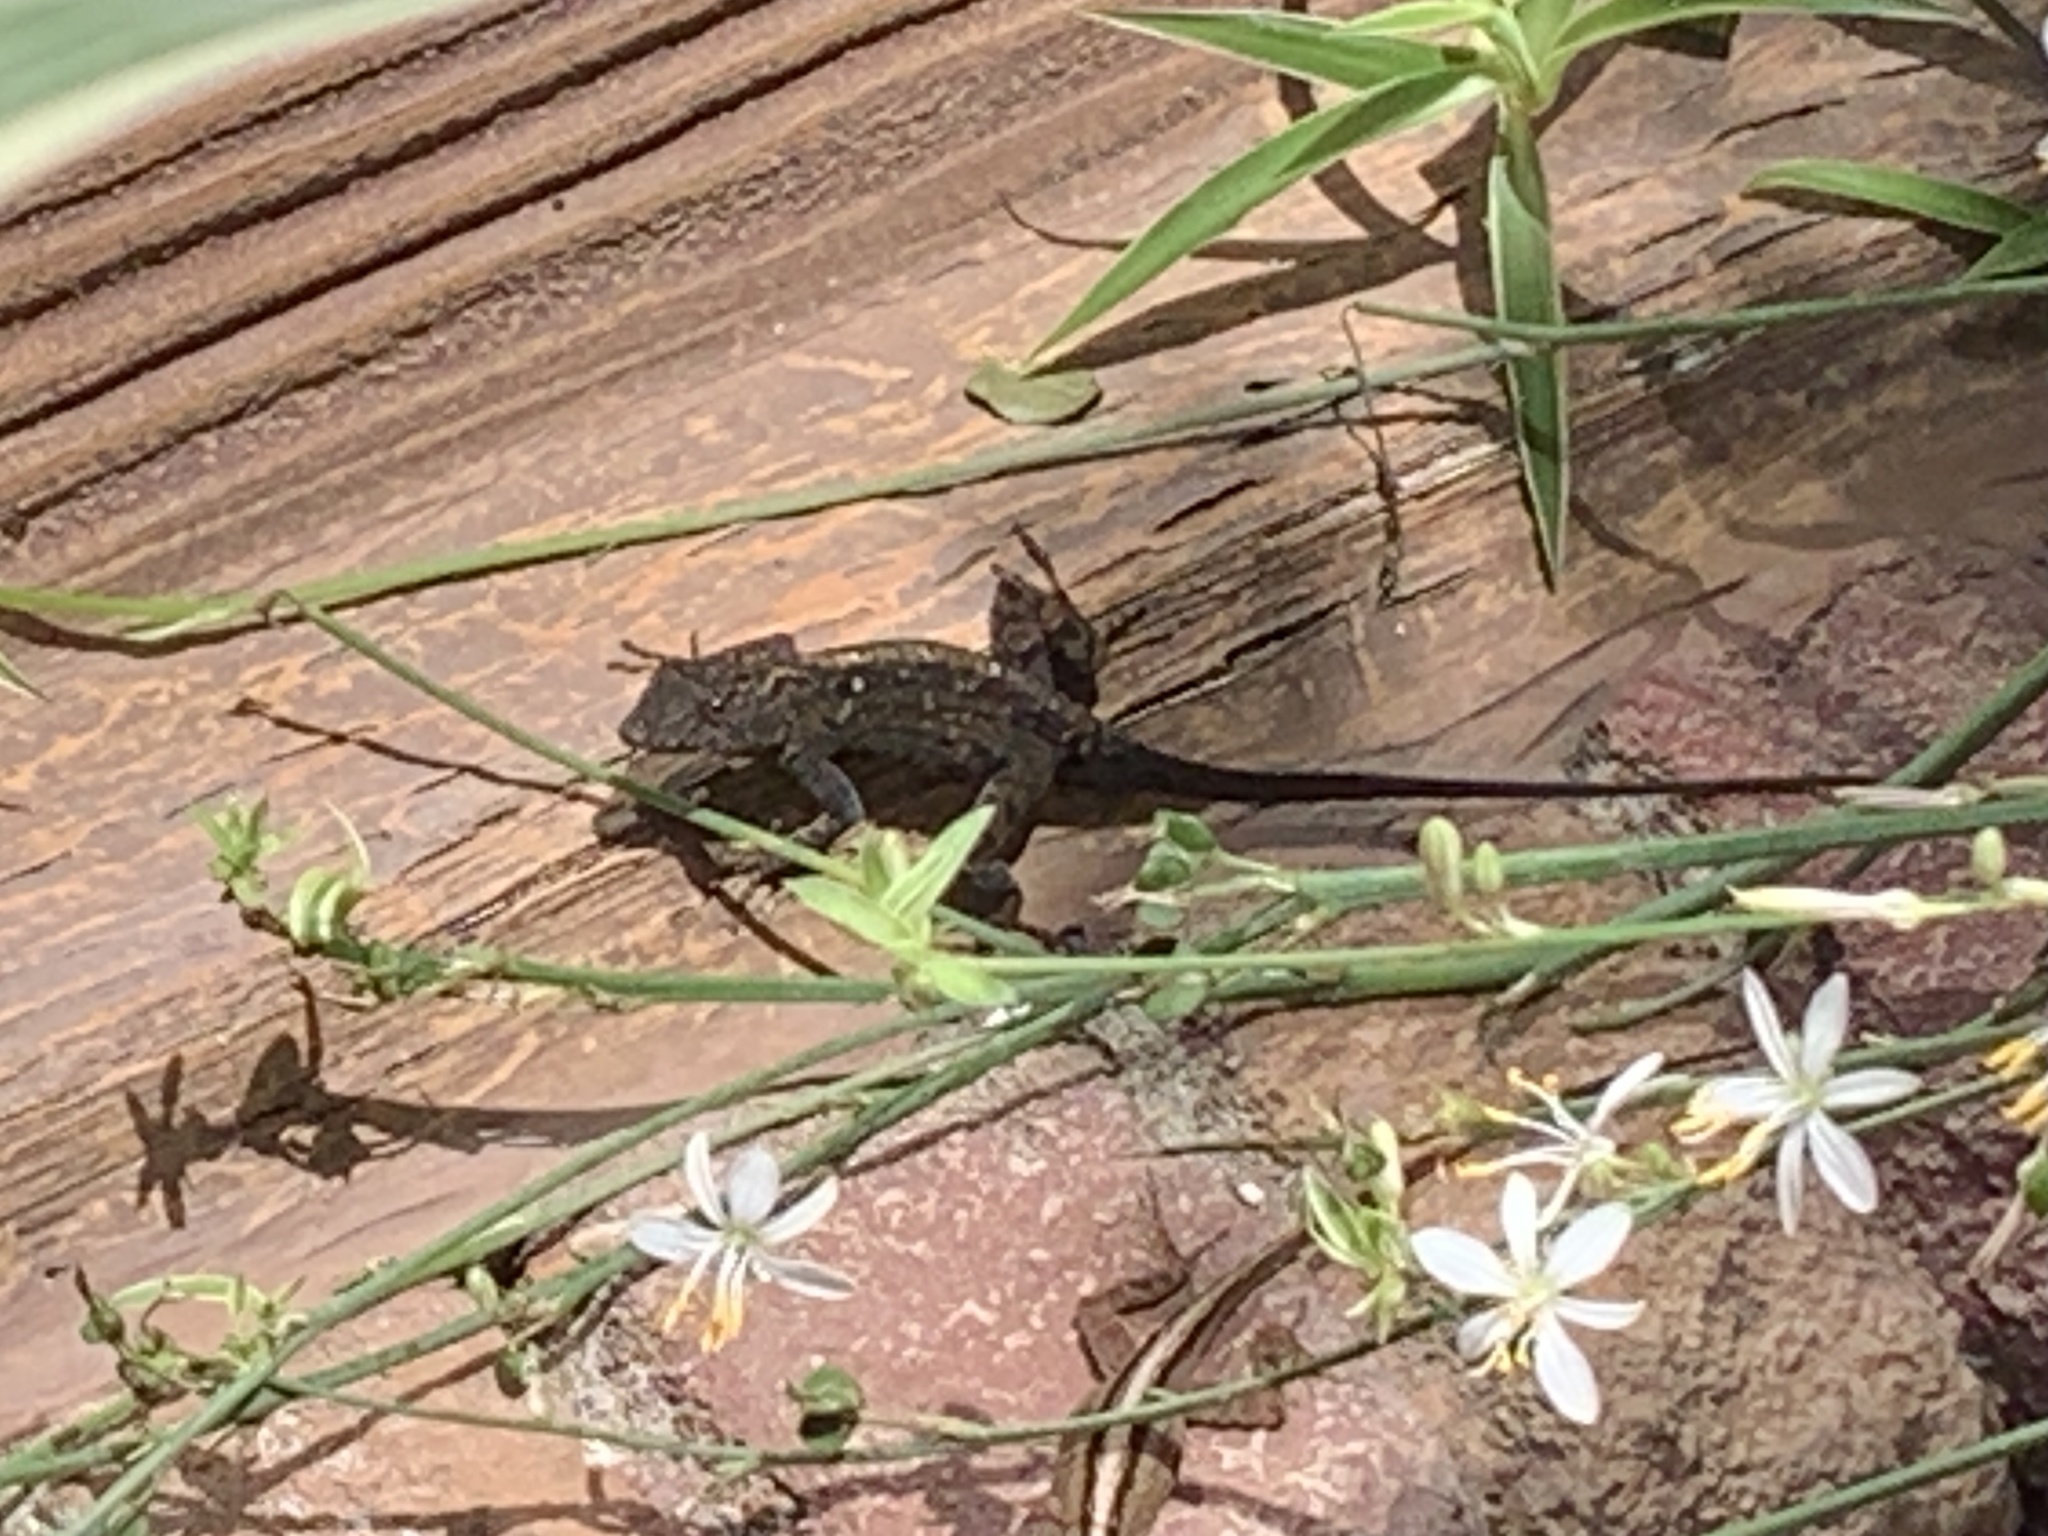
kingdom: Animalia
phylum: Chordata
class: Squamata
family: Dactyloidae
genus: Anolis
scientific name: Anolis sagrei
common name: Brown anole
